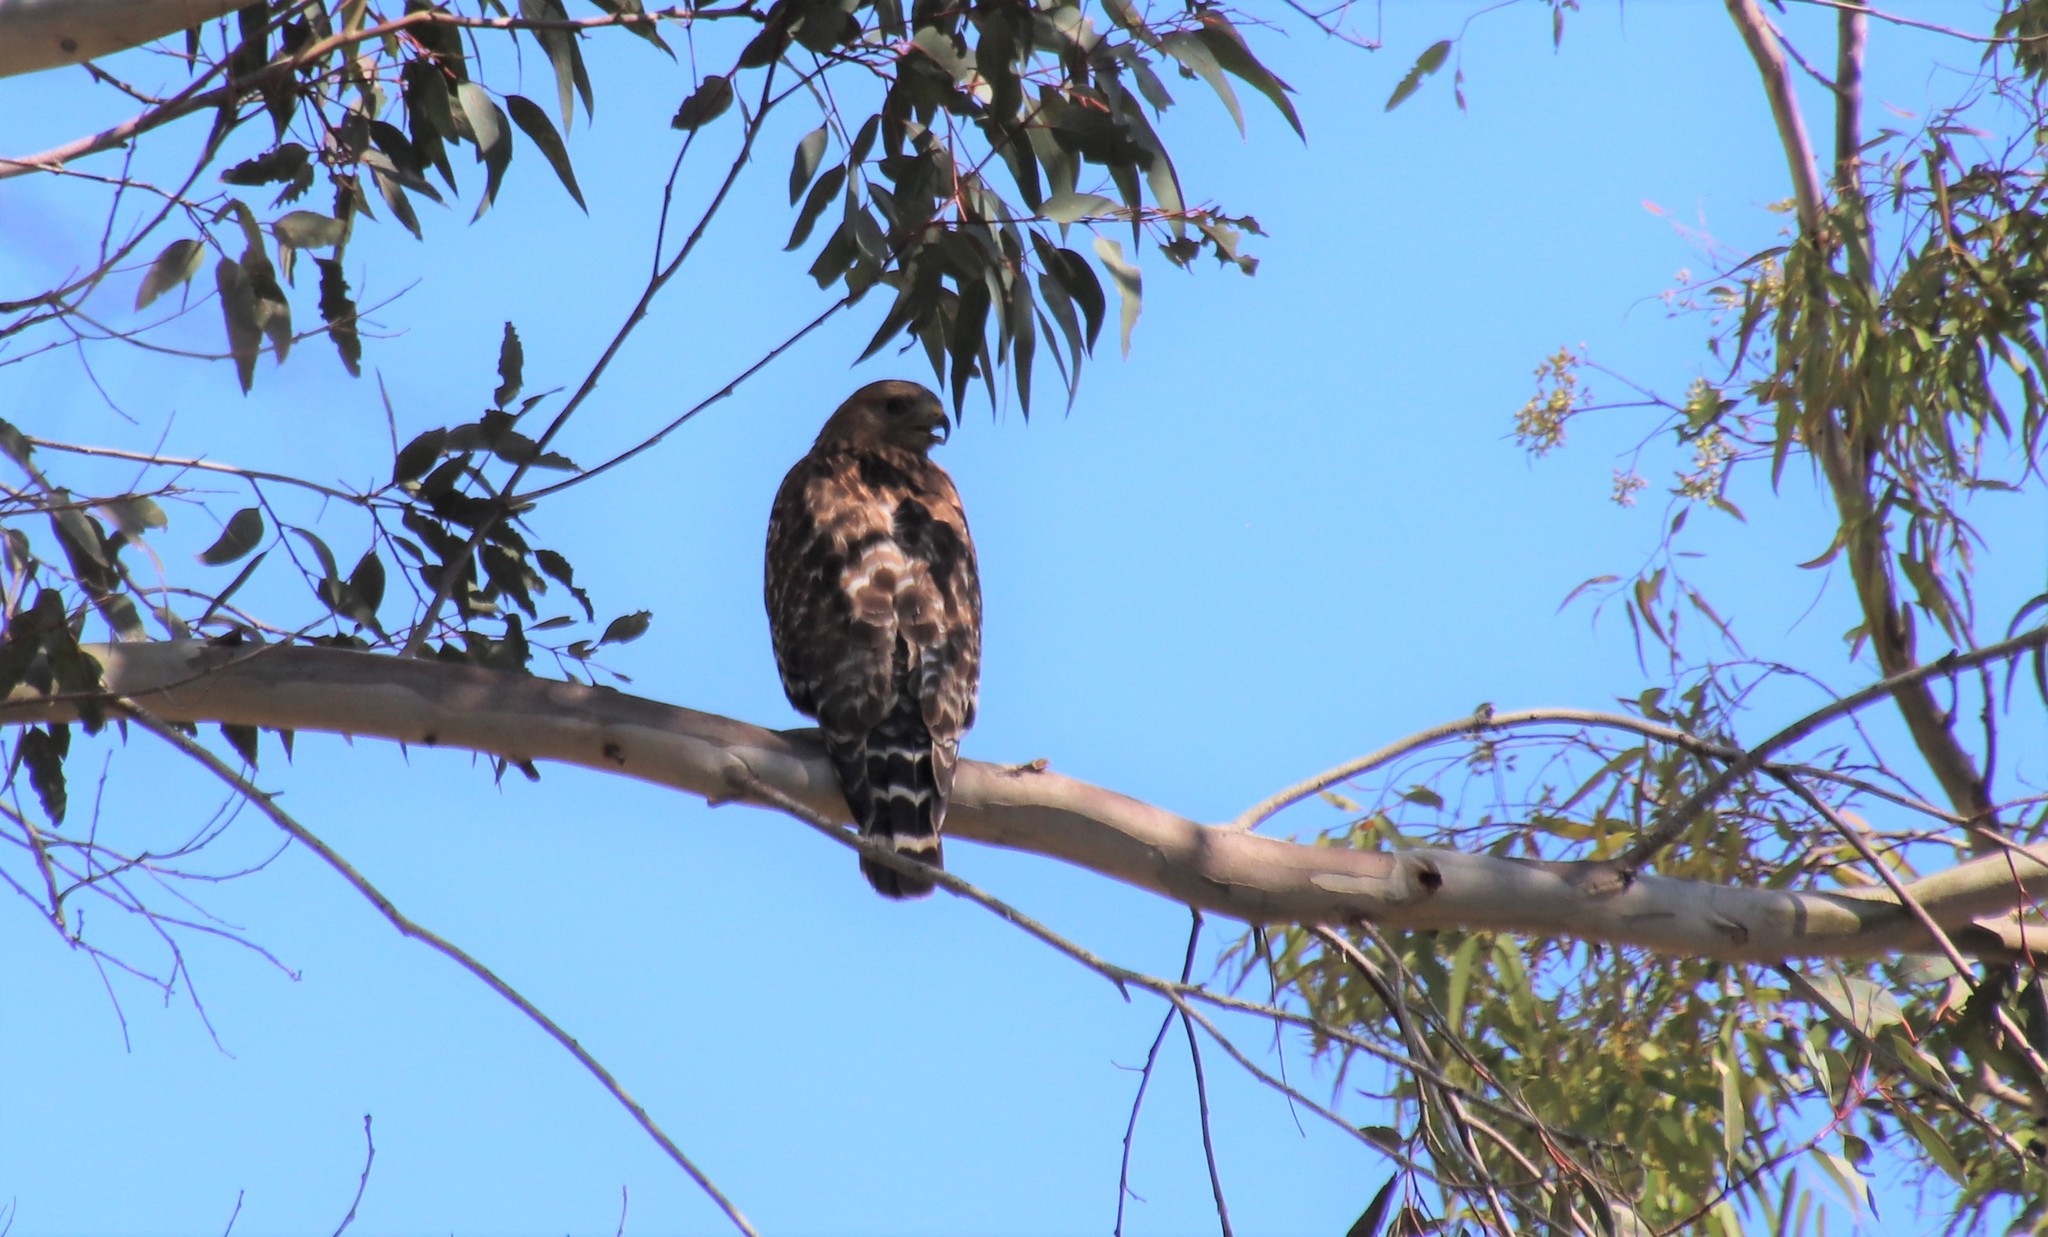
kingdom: Animalia
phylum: Chordata
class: Aves
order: Accipitriformes
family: Accipitridae
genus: Buteo
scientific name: Buteo lineatus
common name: Red-shouldered hawk
